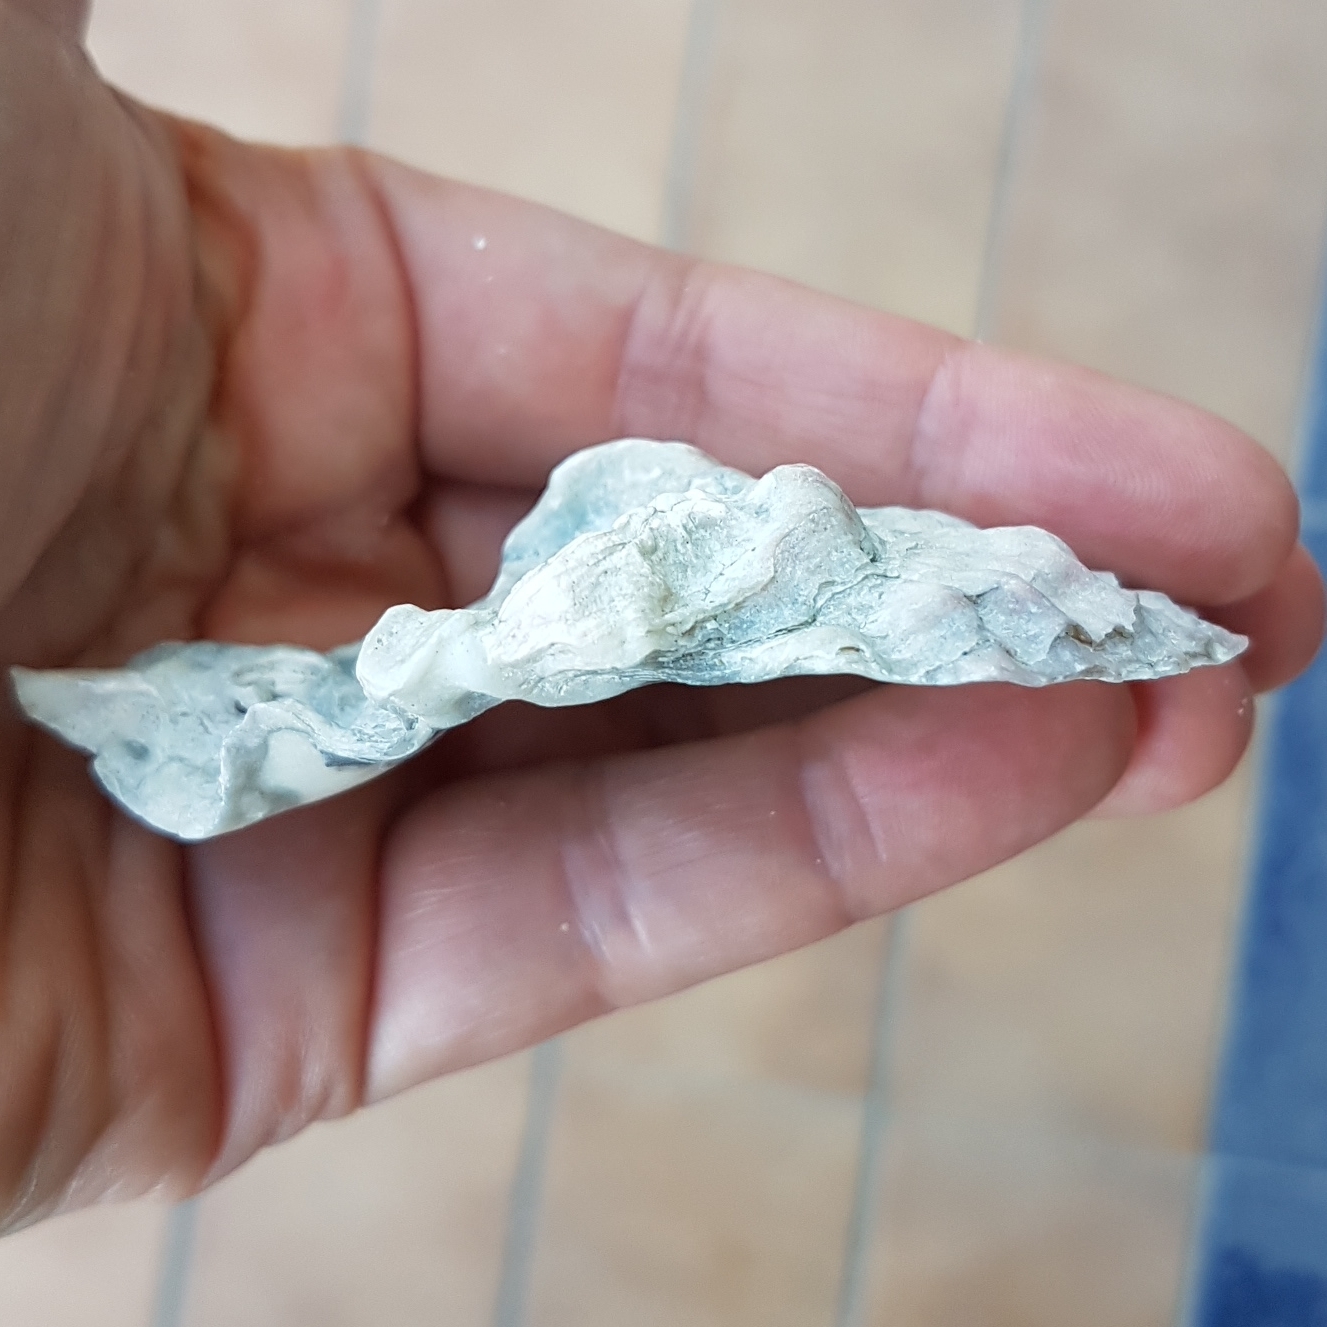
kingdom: Animalia
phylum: Mollusca
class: Bivalvia
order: Ostreida
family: Ostreidae
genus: Ostrea
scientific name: Ostrea edulis
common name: Flat oyster
